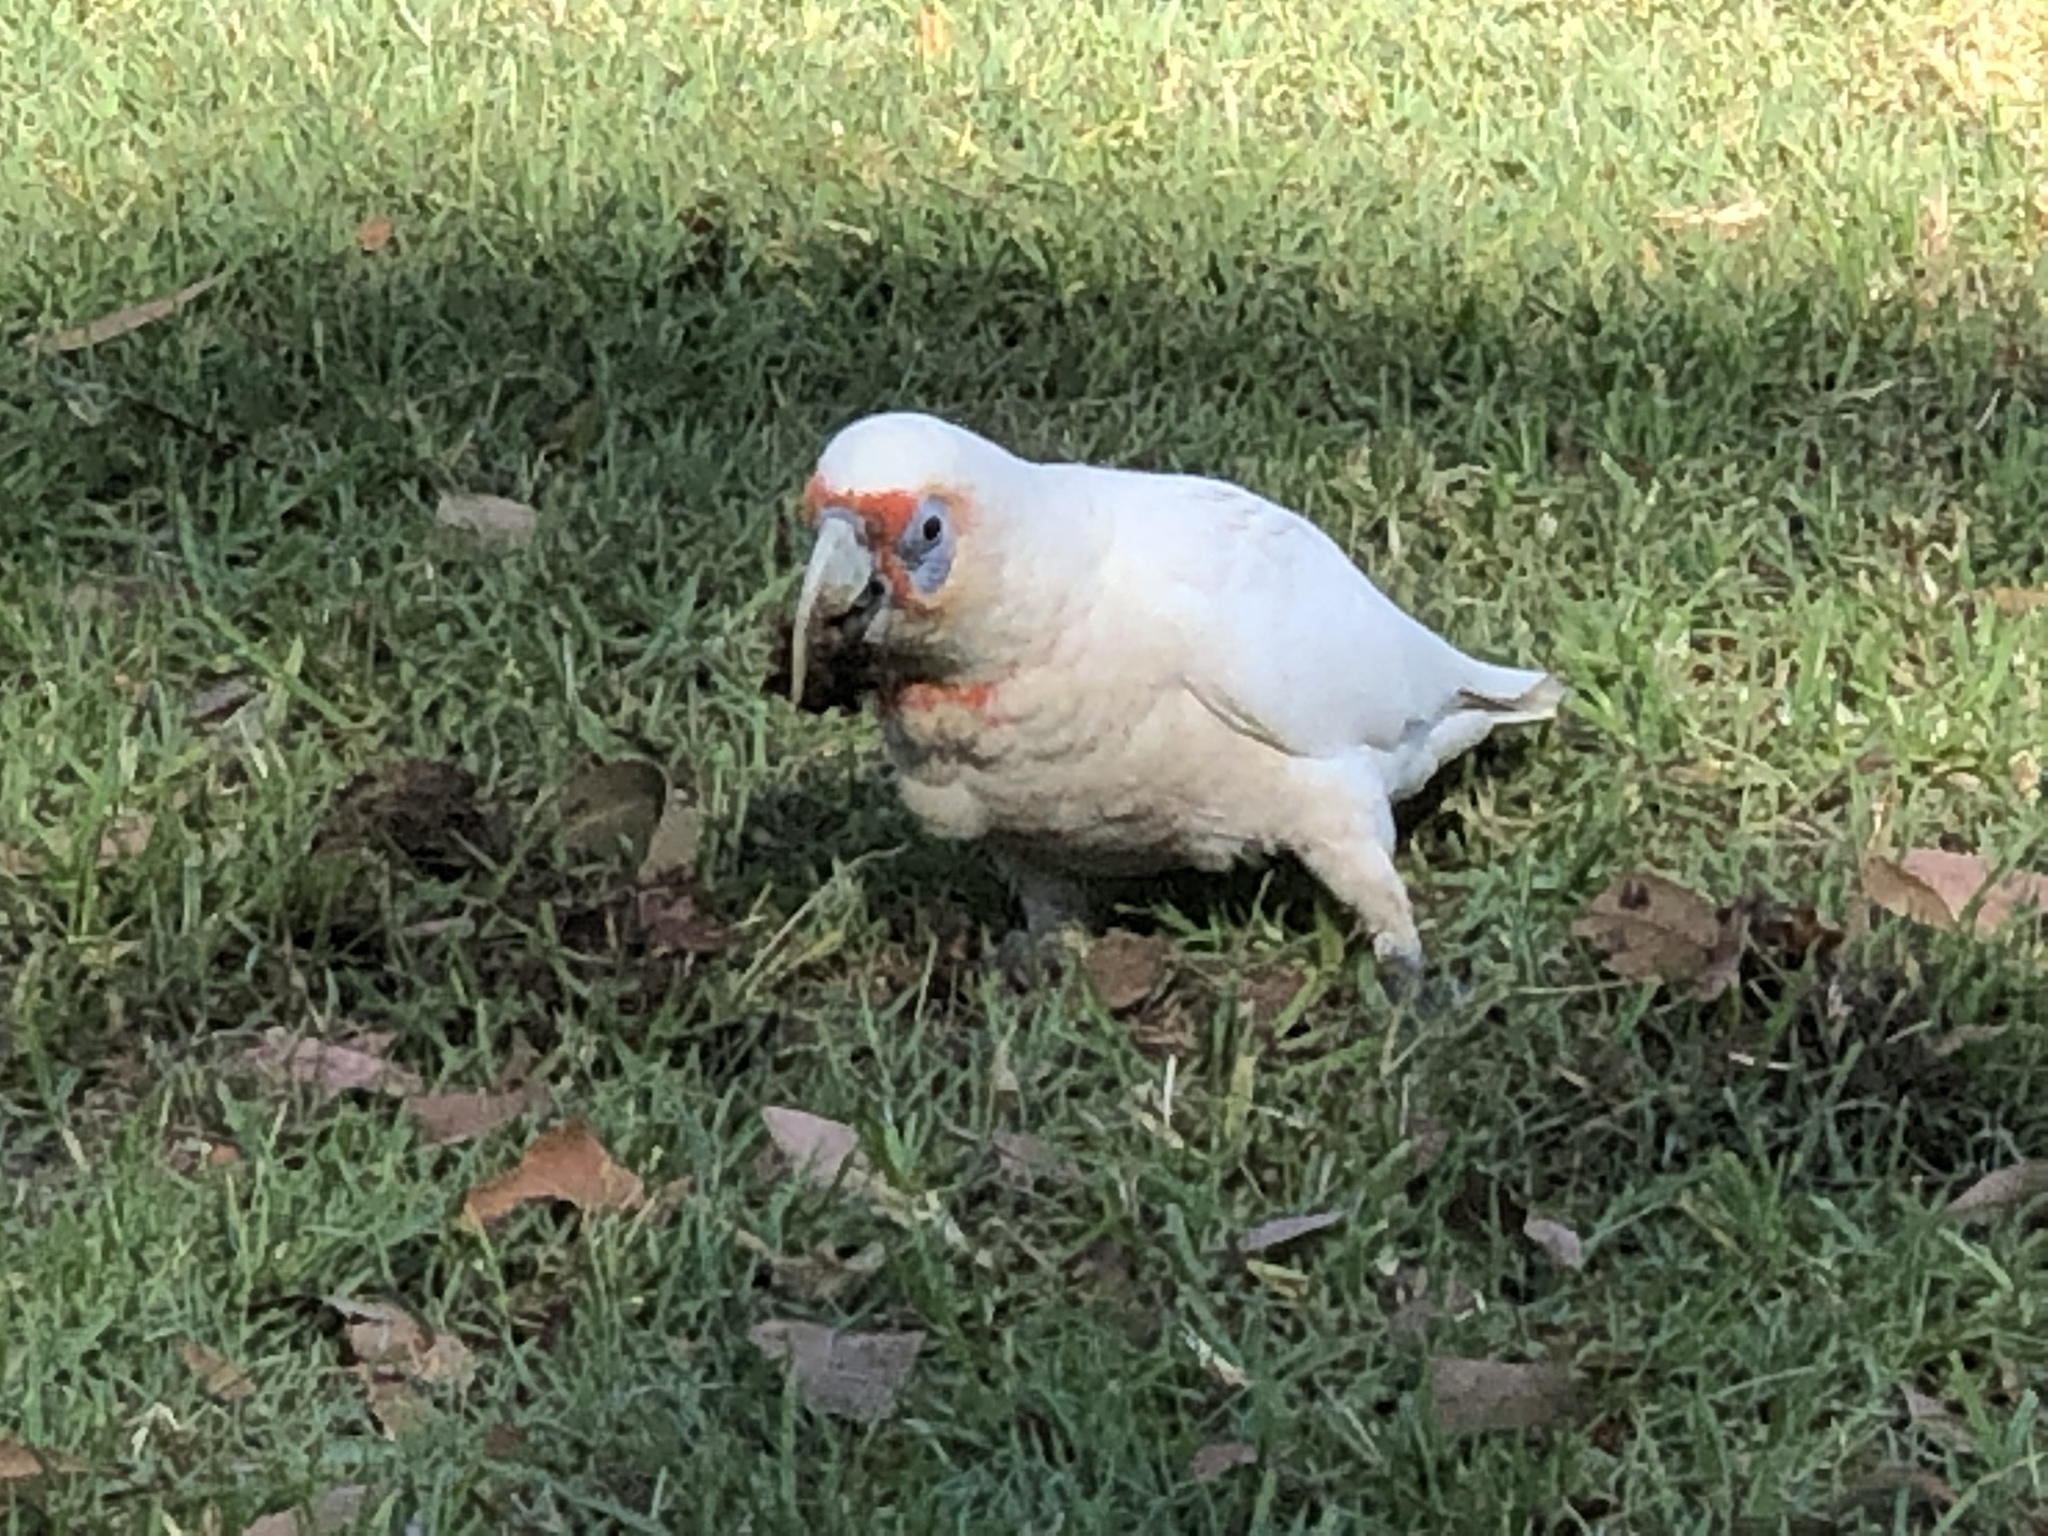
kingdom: Animalia
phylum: Chordata
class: Aves
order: Psittaciformes
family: Psittacidae
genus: Cacatua
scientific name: Cacatua tenuirostris
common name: Long-billed corella
